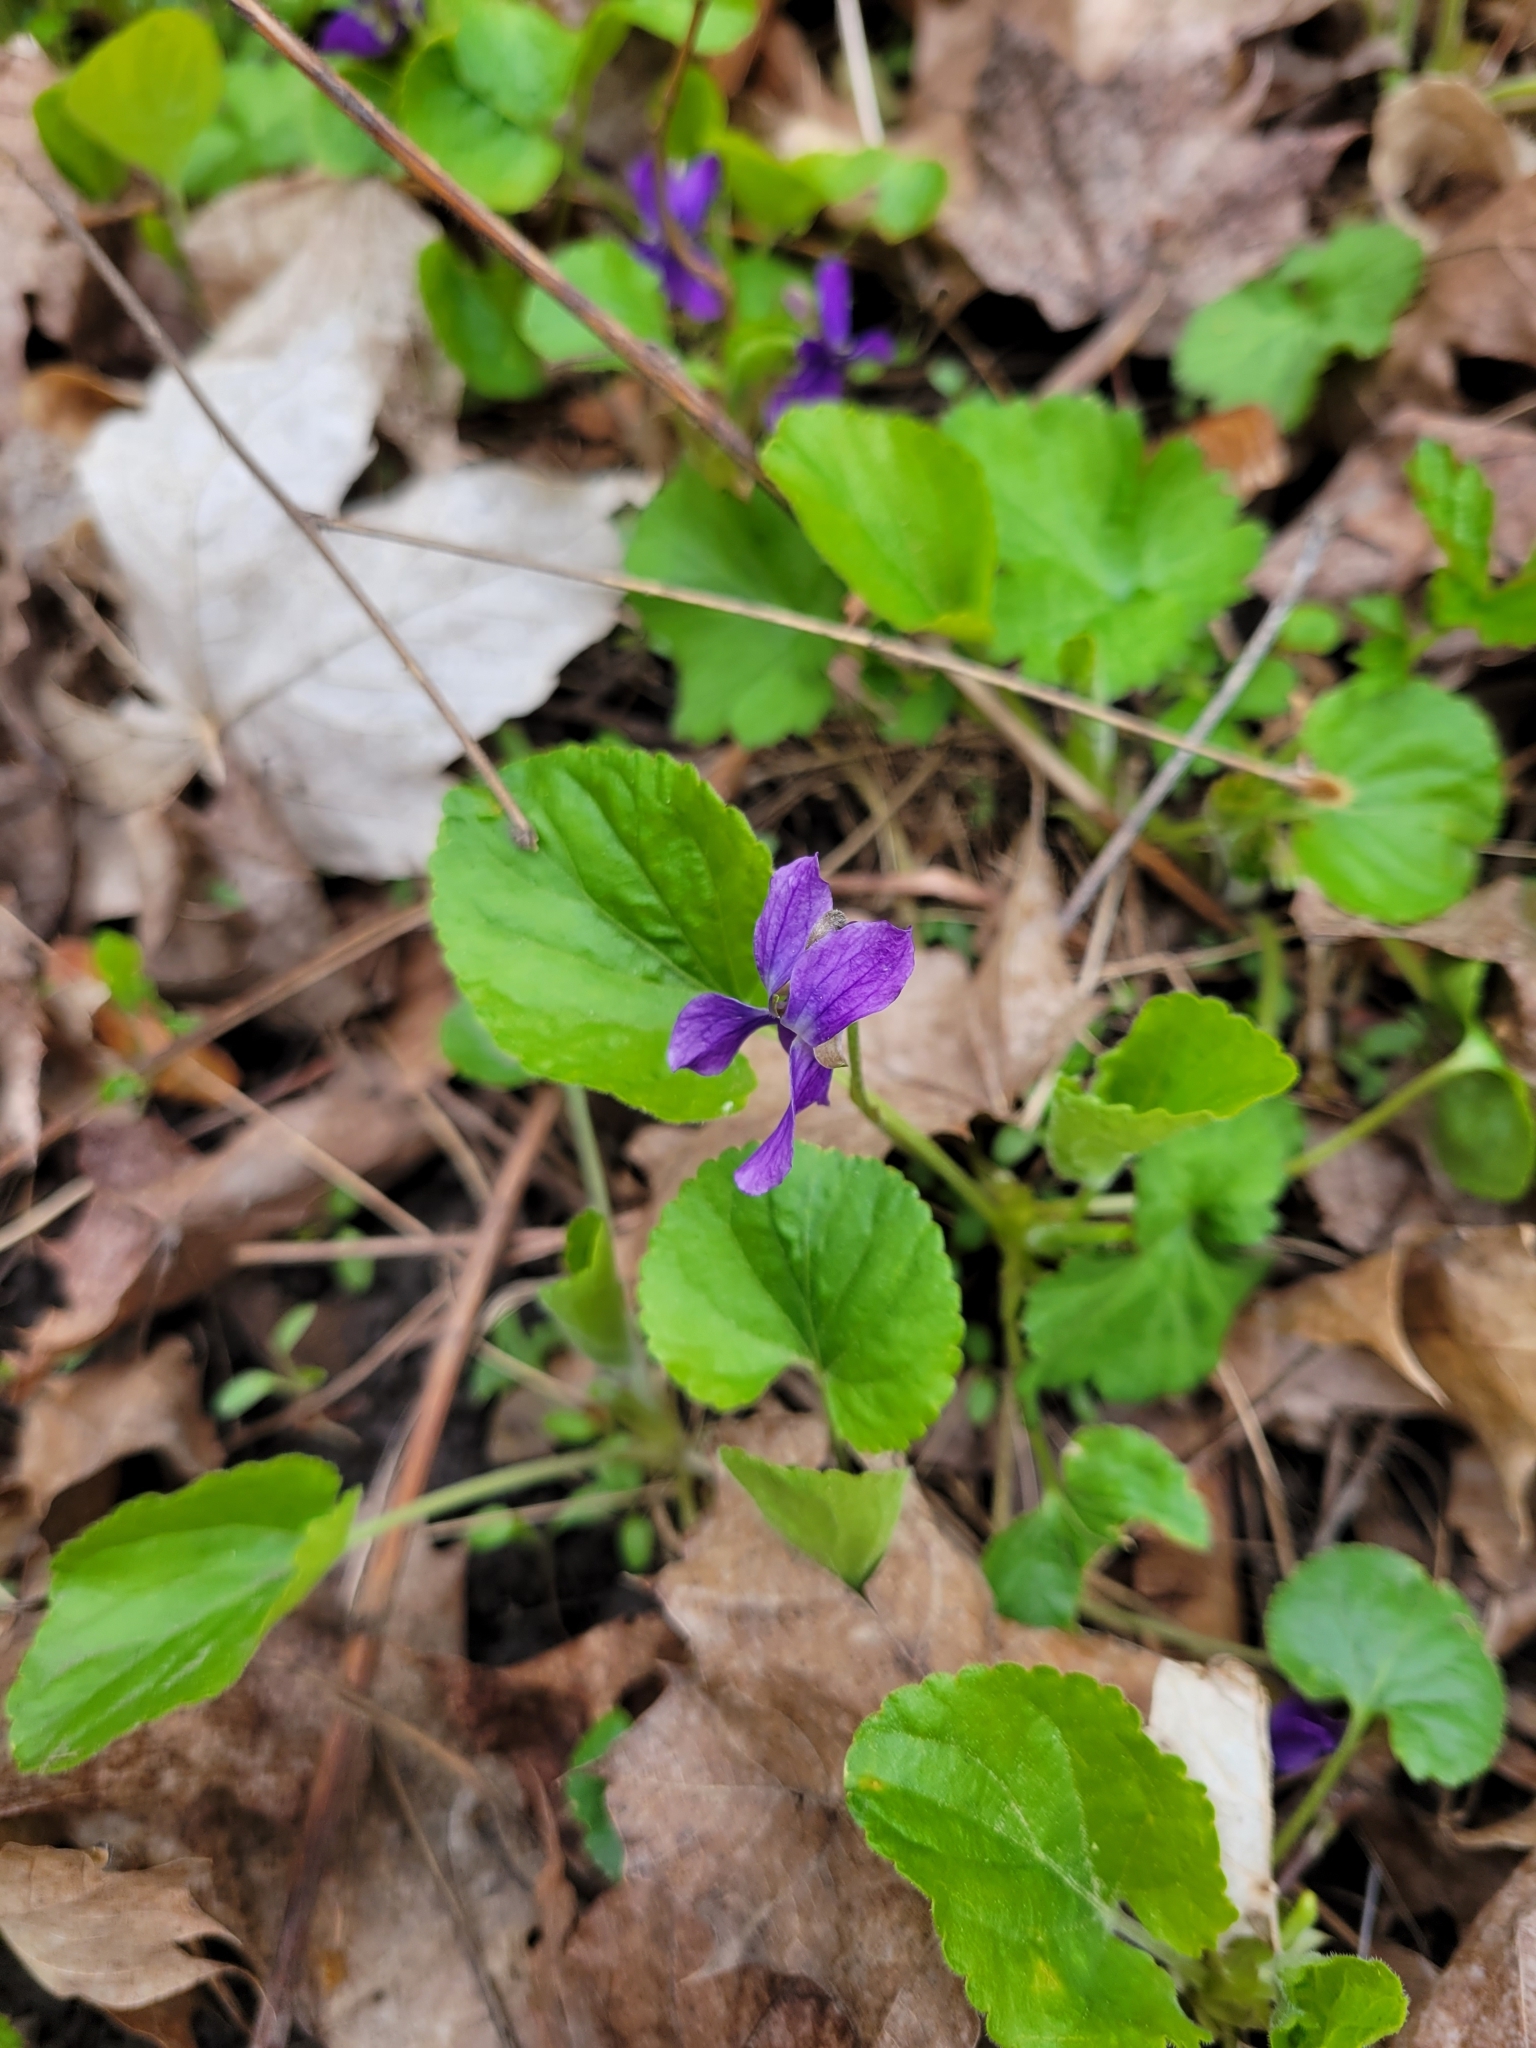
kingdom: Plantae
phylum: Tracheophyta
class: Magnoliopsida
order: Malpighiales
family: Violaceae
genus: Viola
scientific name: Viola odorata
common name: Sweet violet
